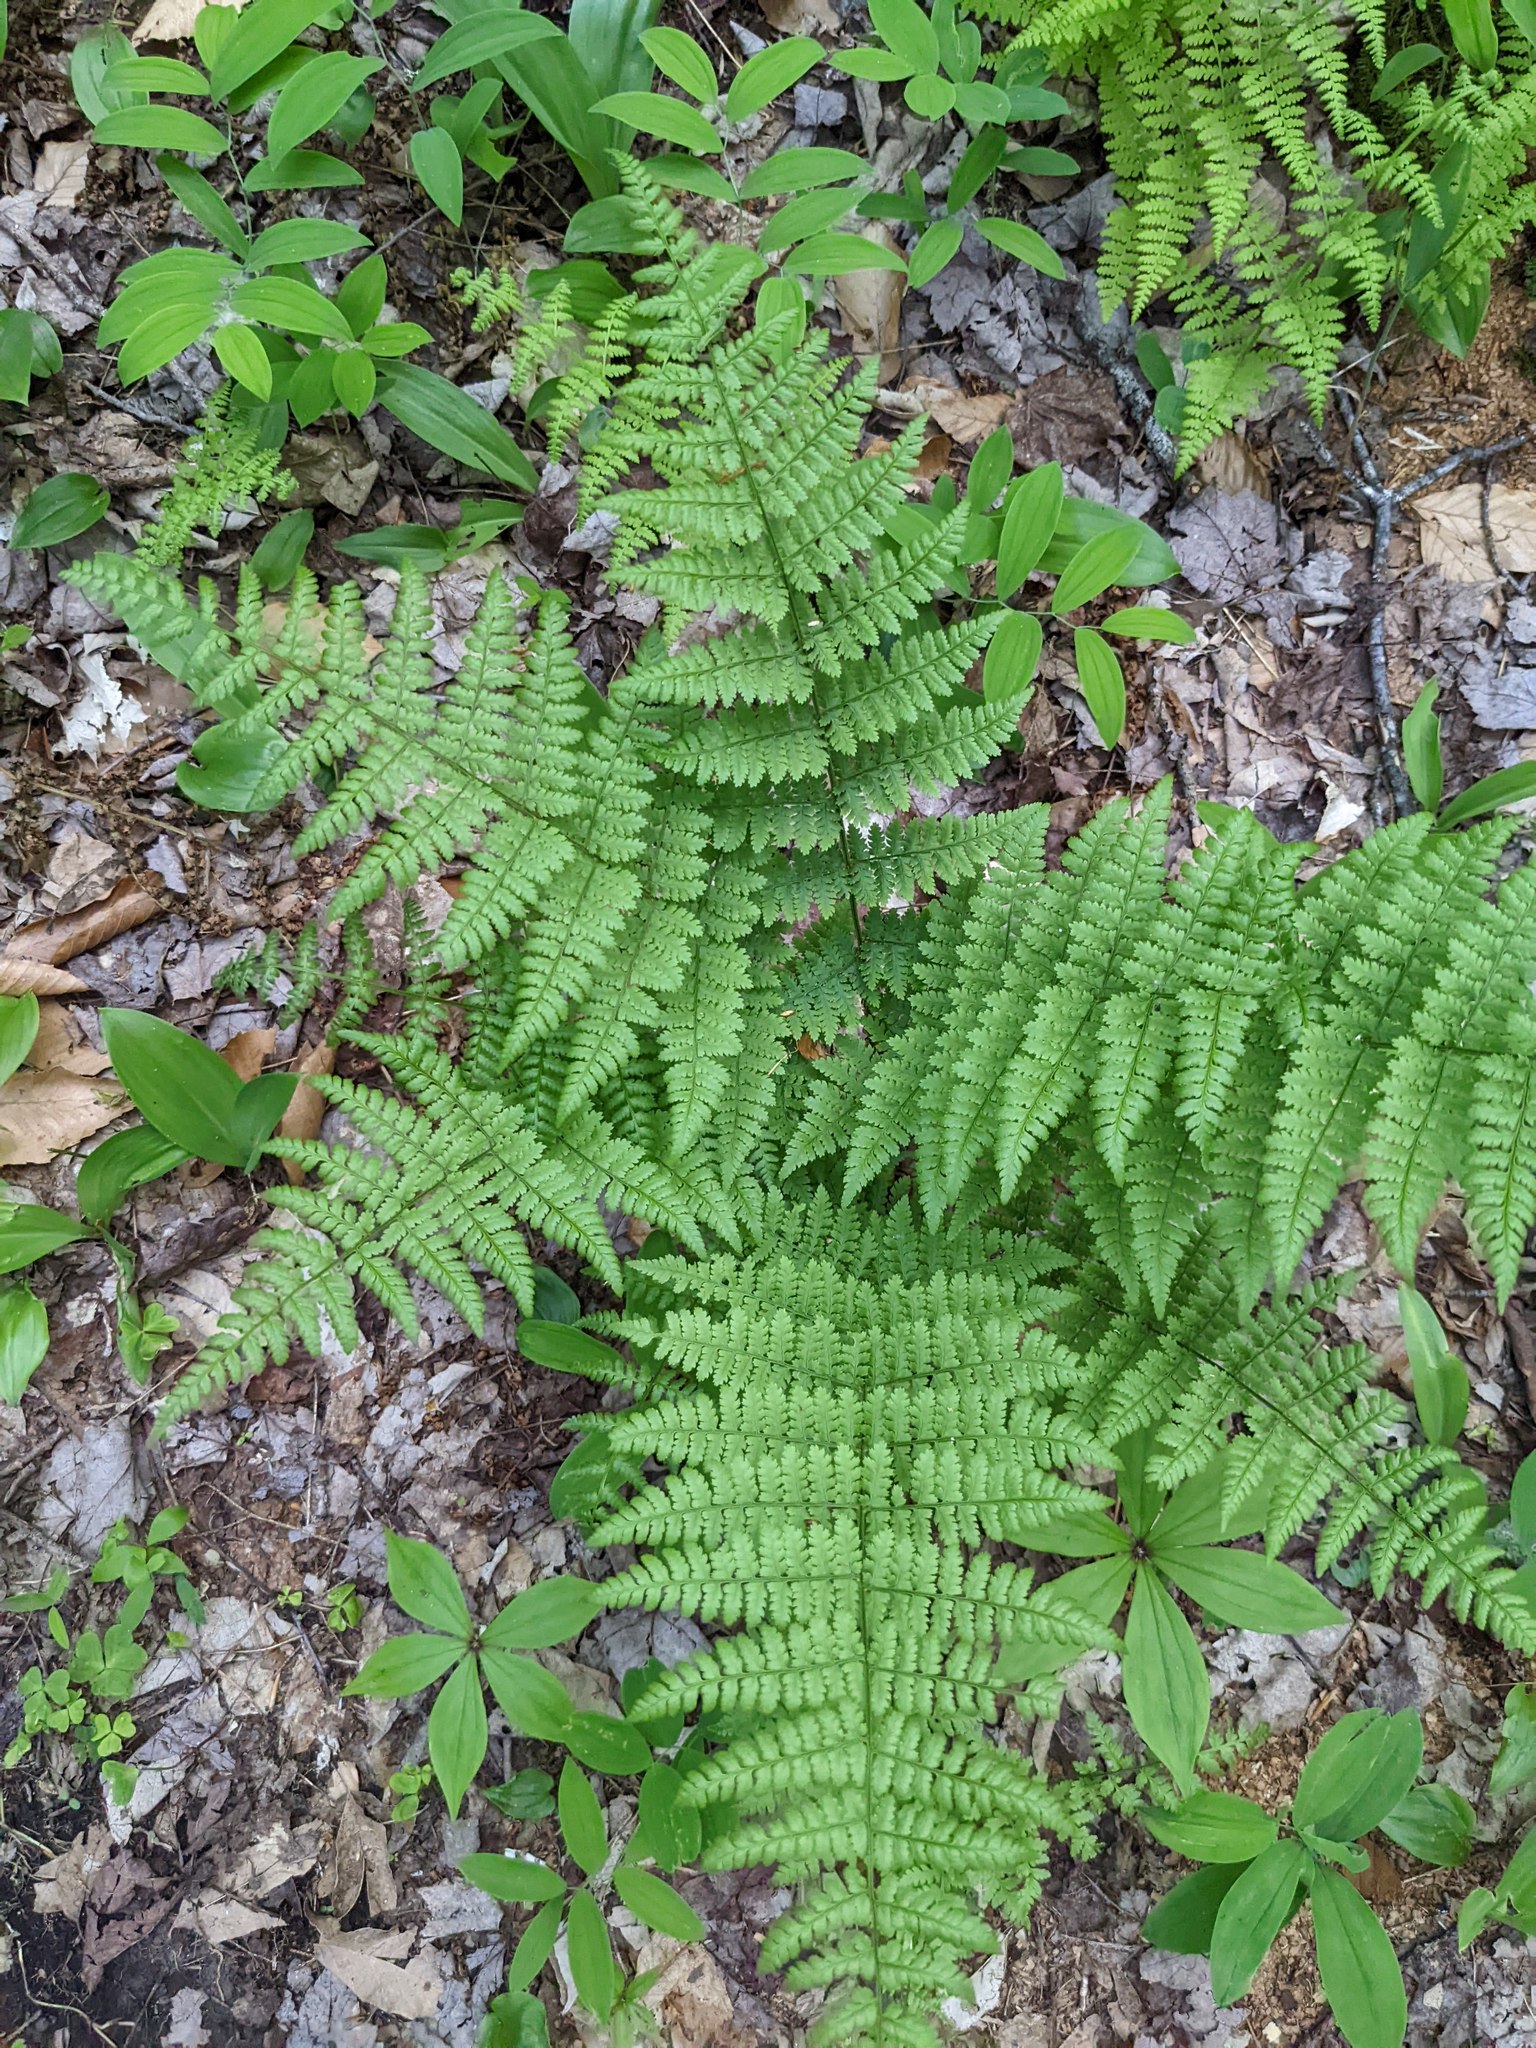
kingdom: Plantae
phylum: Tracheophyta
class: Polypodiopsida
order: Polypodiales
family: Dryopteridaceae
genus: Dryopteris
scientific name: Dryopteris intermedia
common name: Evergreen wood fern
